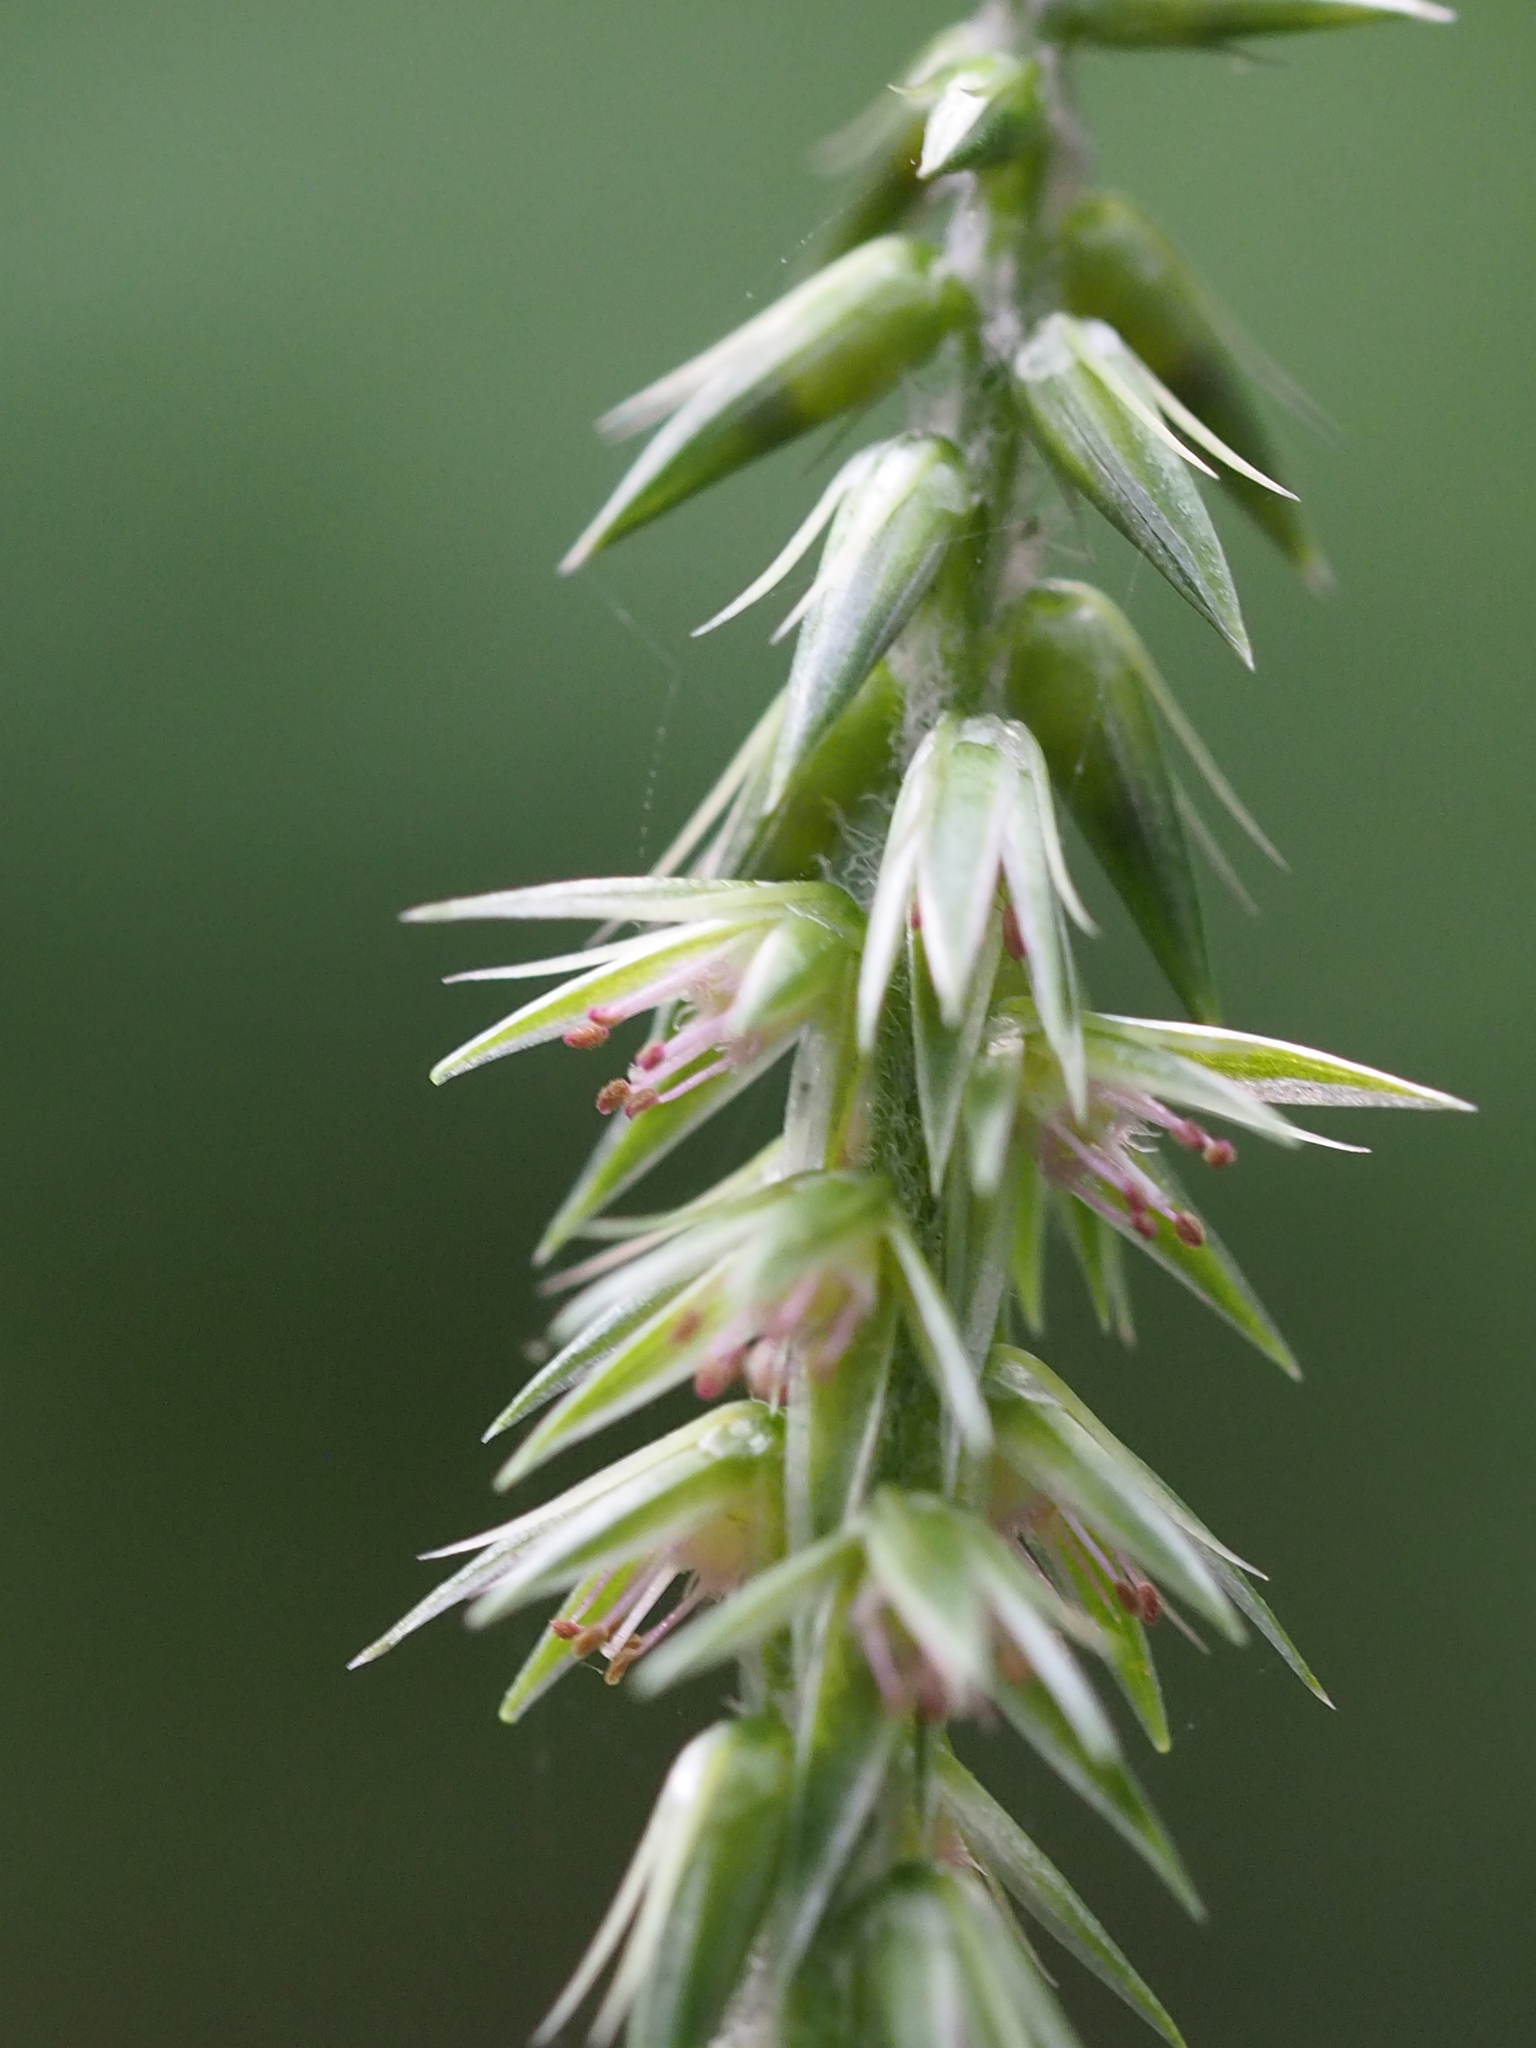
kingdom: Plantae
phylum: Tracheophyta
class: Magnoliopsida
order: Caryophyllales
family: Amaranthaceae
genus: Achyranthes
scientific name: Achyranthes bidentata
